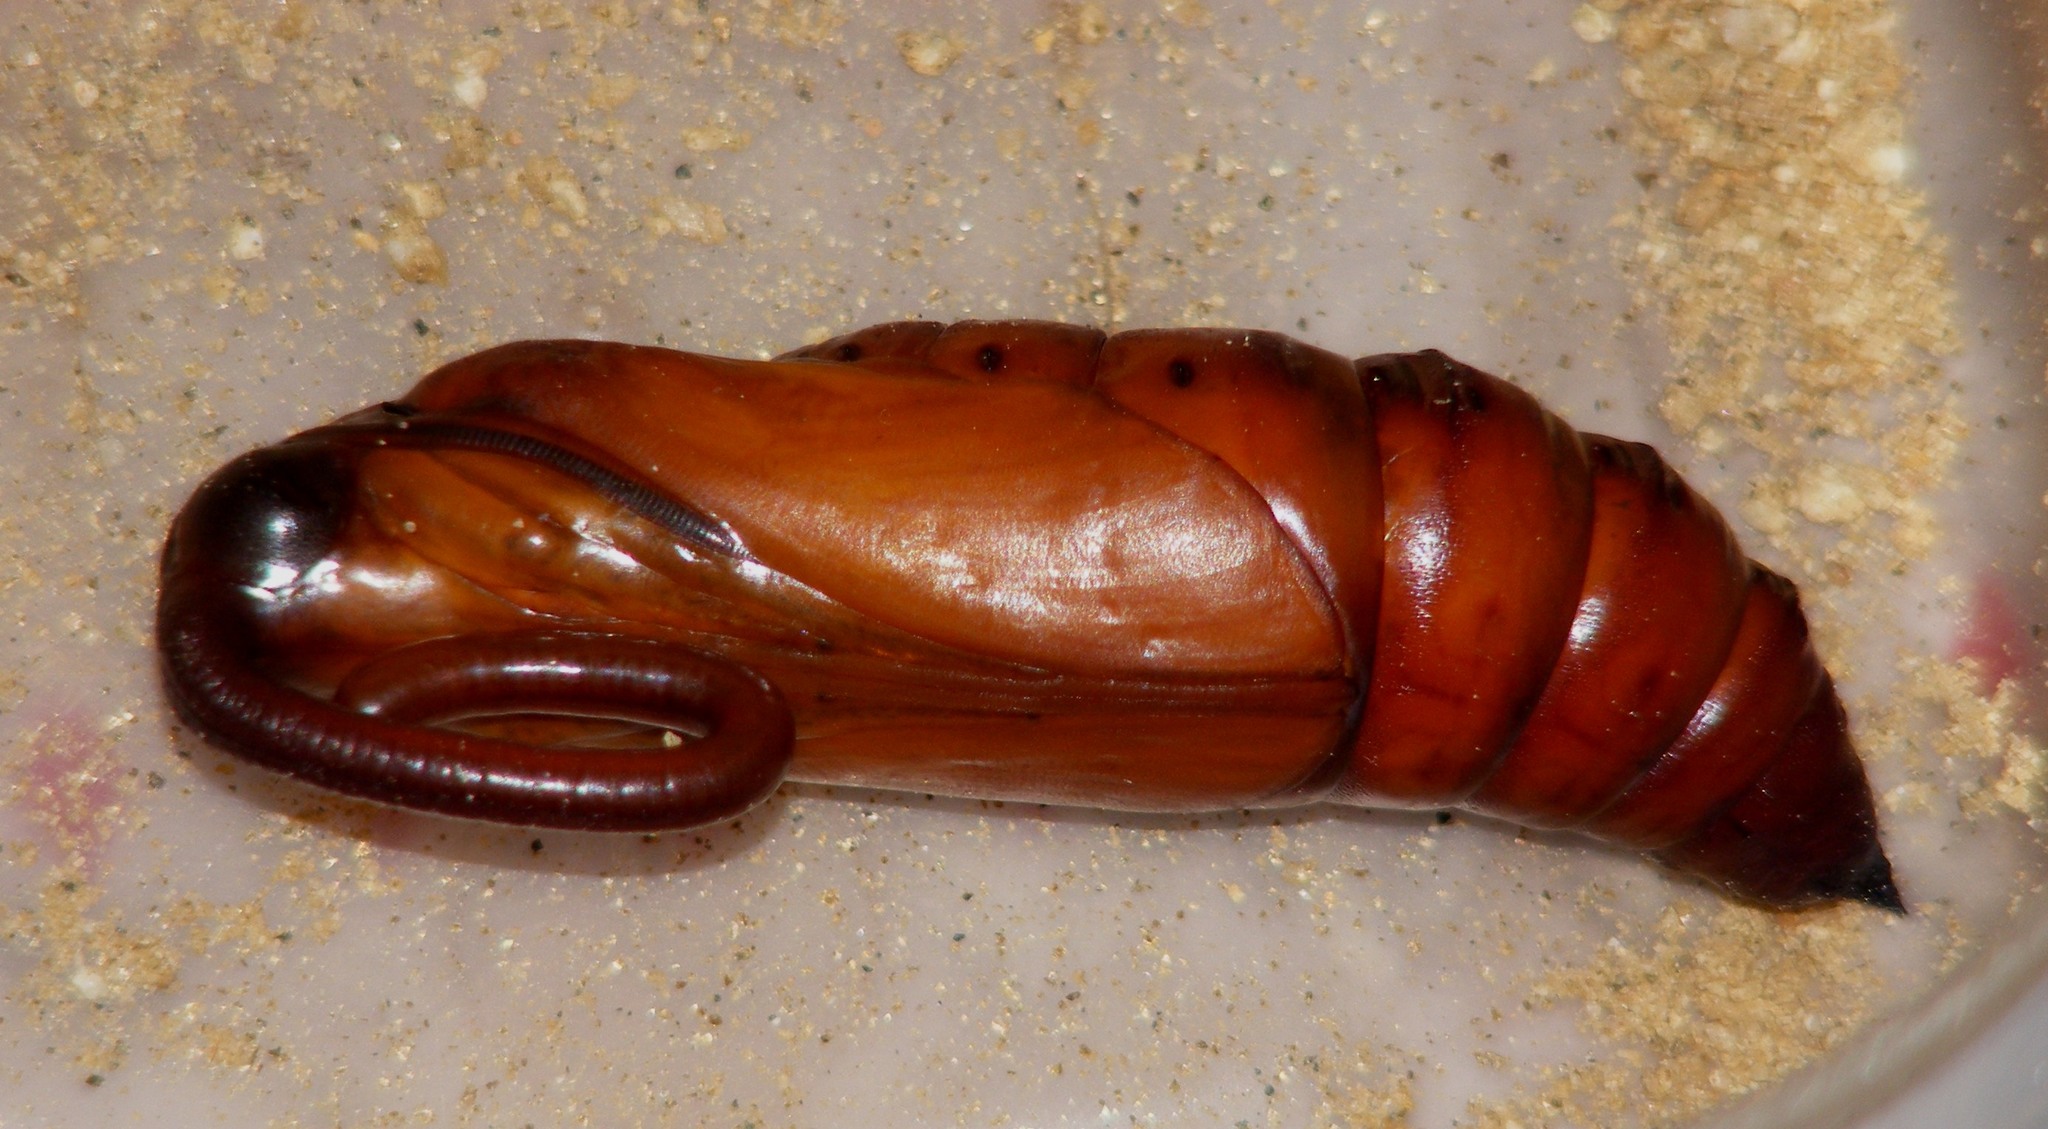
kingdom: Animalia
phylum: Arthropoda
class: Insecta
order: Lepidoptera
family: Sphingidae
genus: Agrius
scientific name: Agrius convolvuli
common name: Convolvulus hawkmoth
